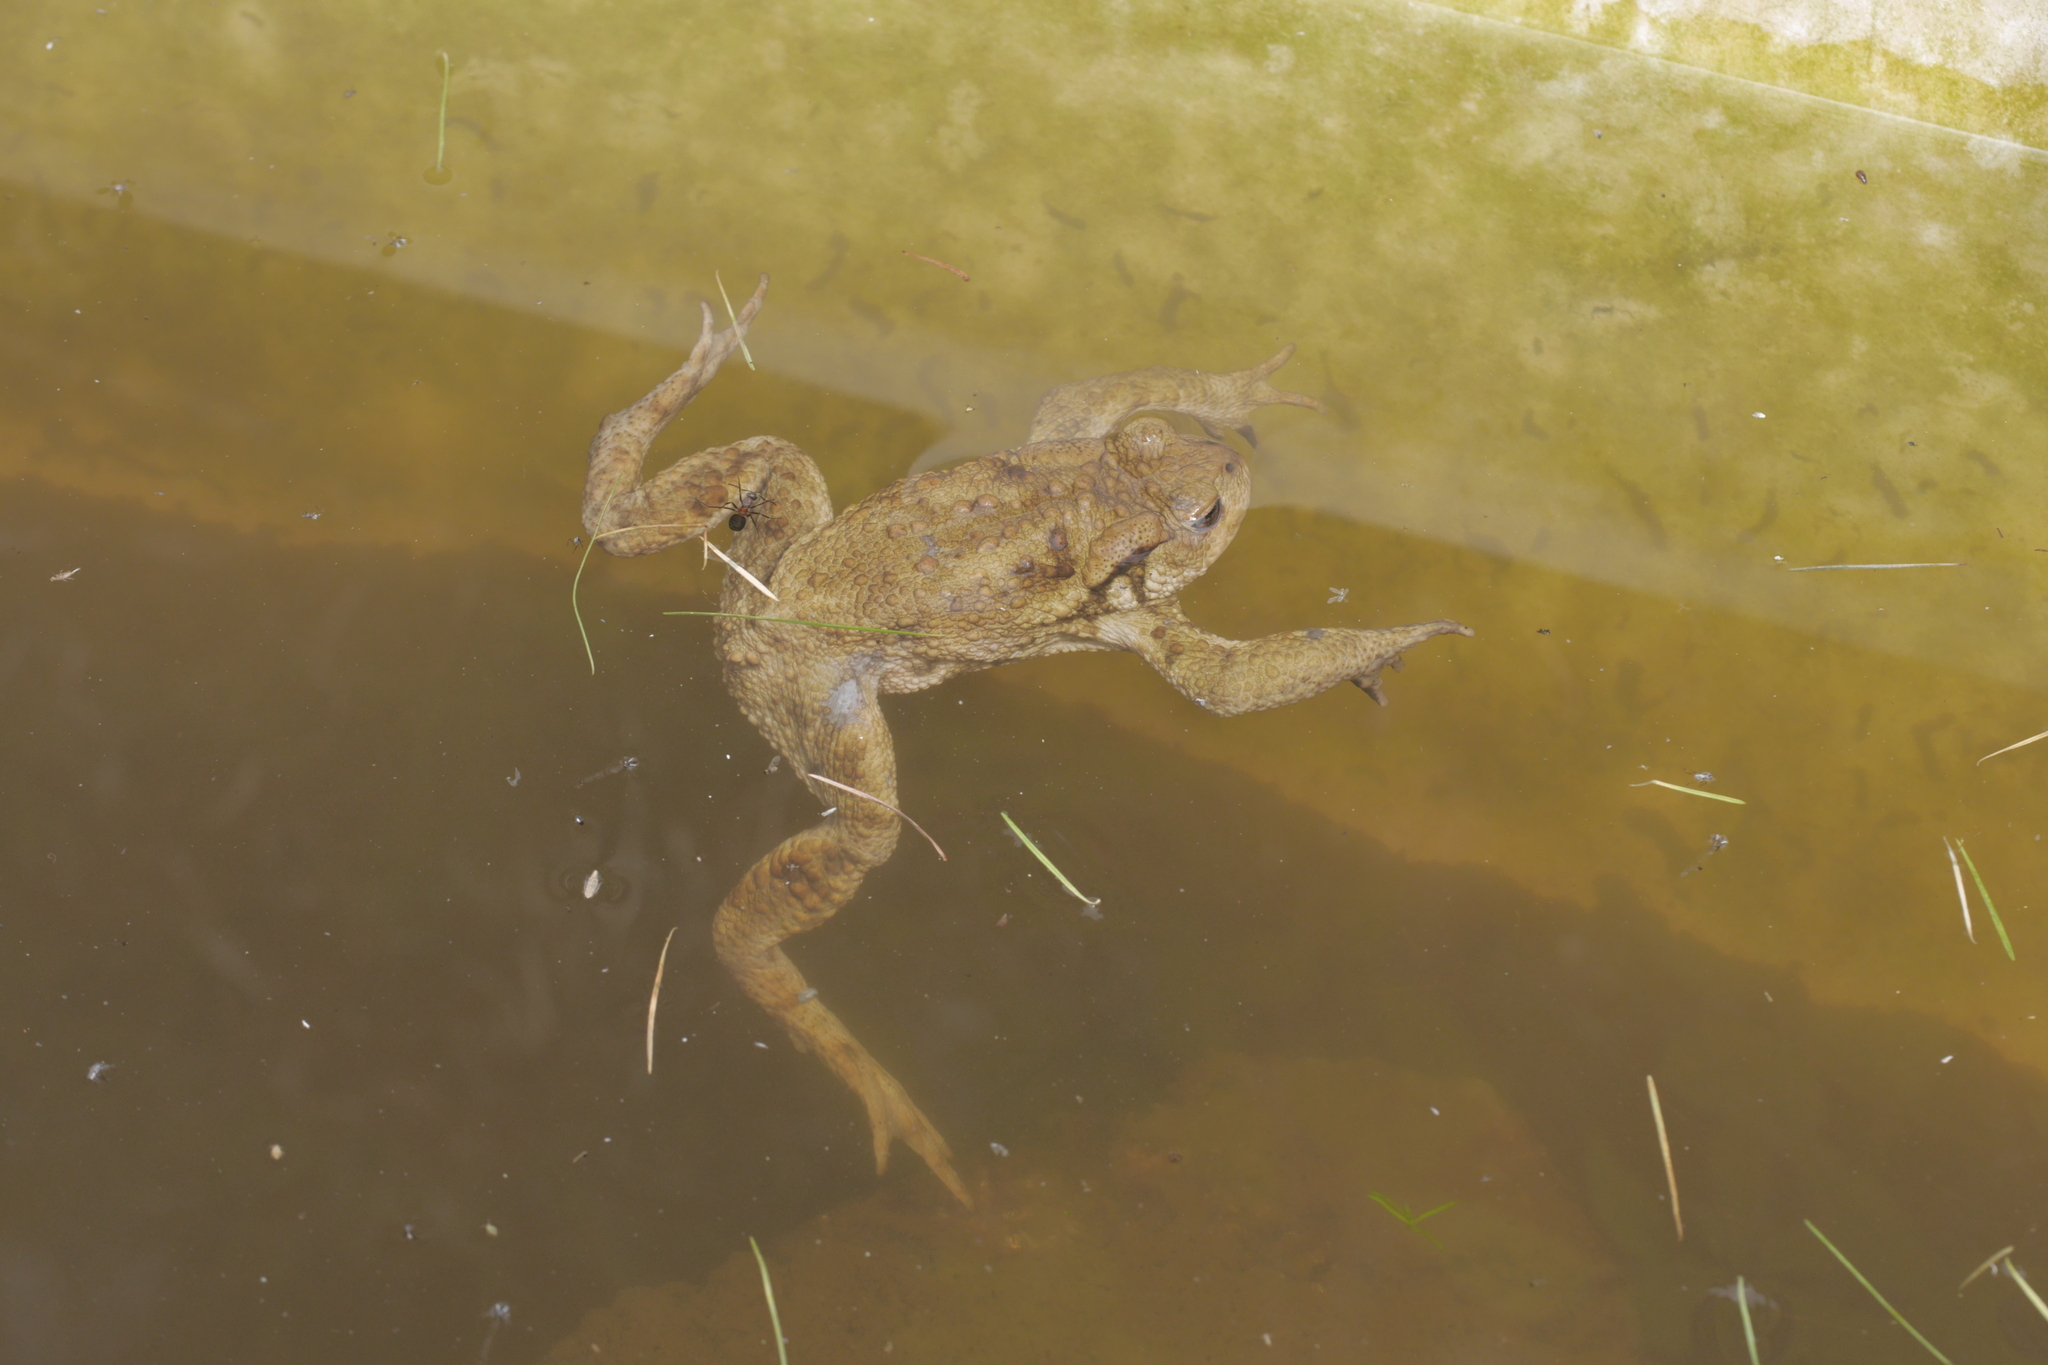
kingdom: Animalia
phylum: Chordata
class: Amphibia
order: Anura
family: Bufonidae
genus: Bufo
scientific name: Bufo bufo
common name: Common toad
